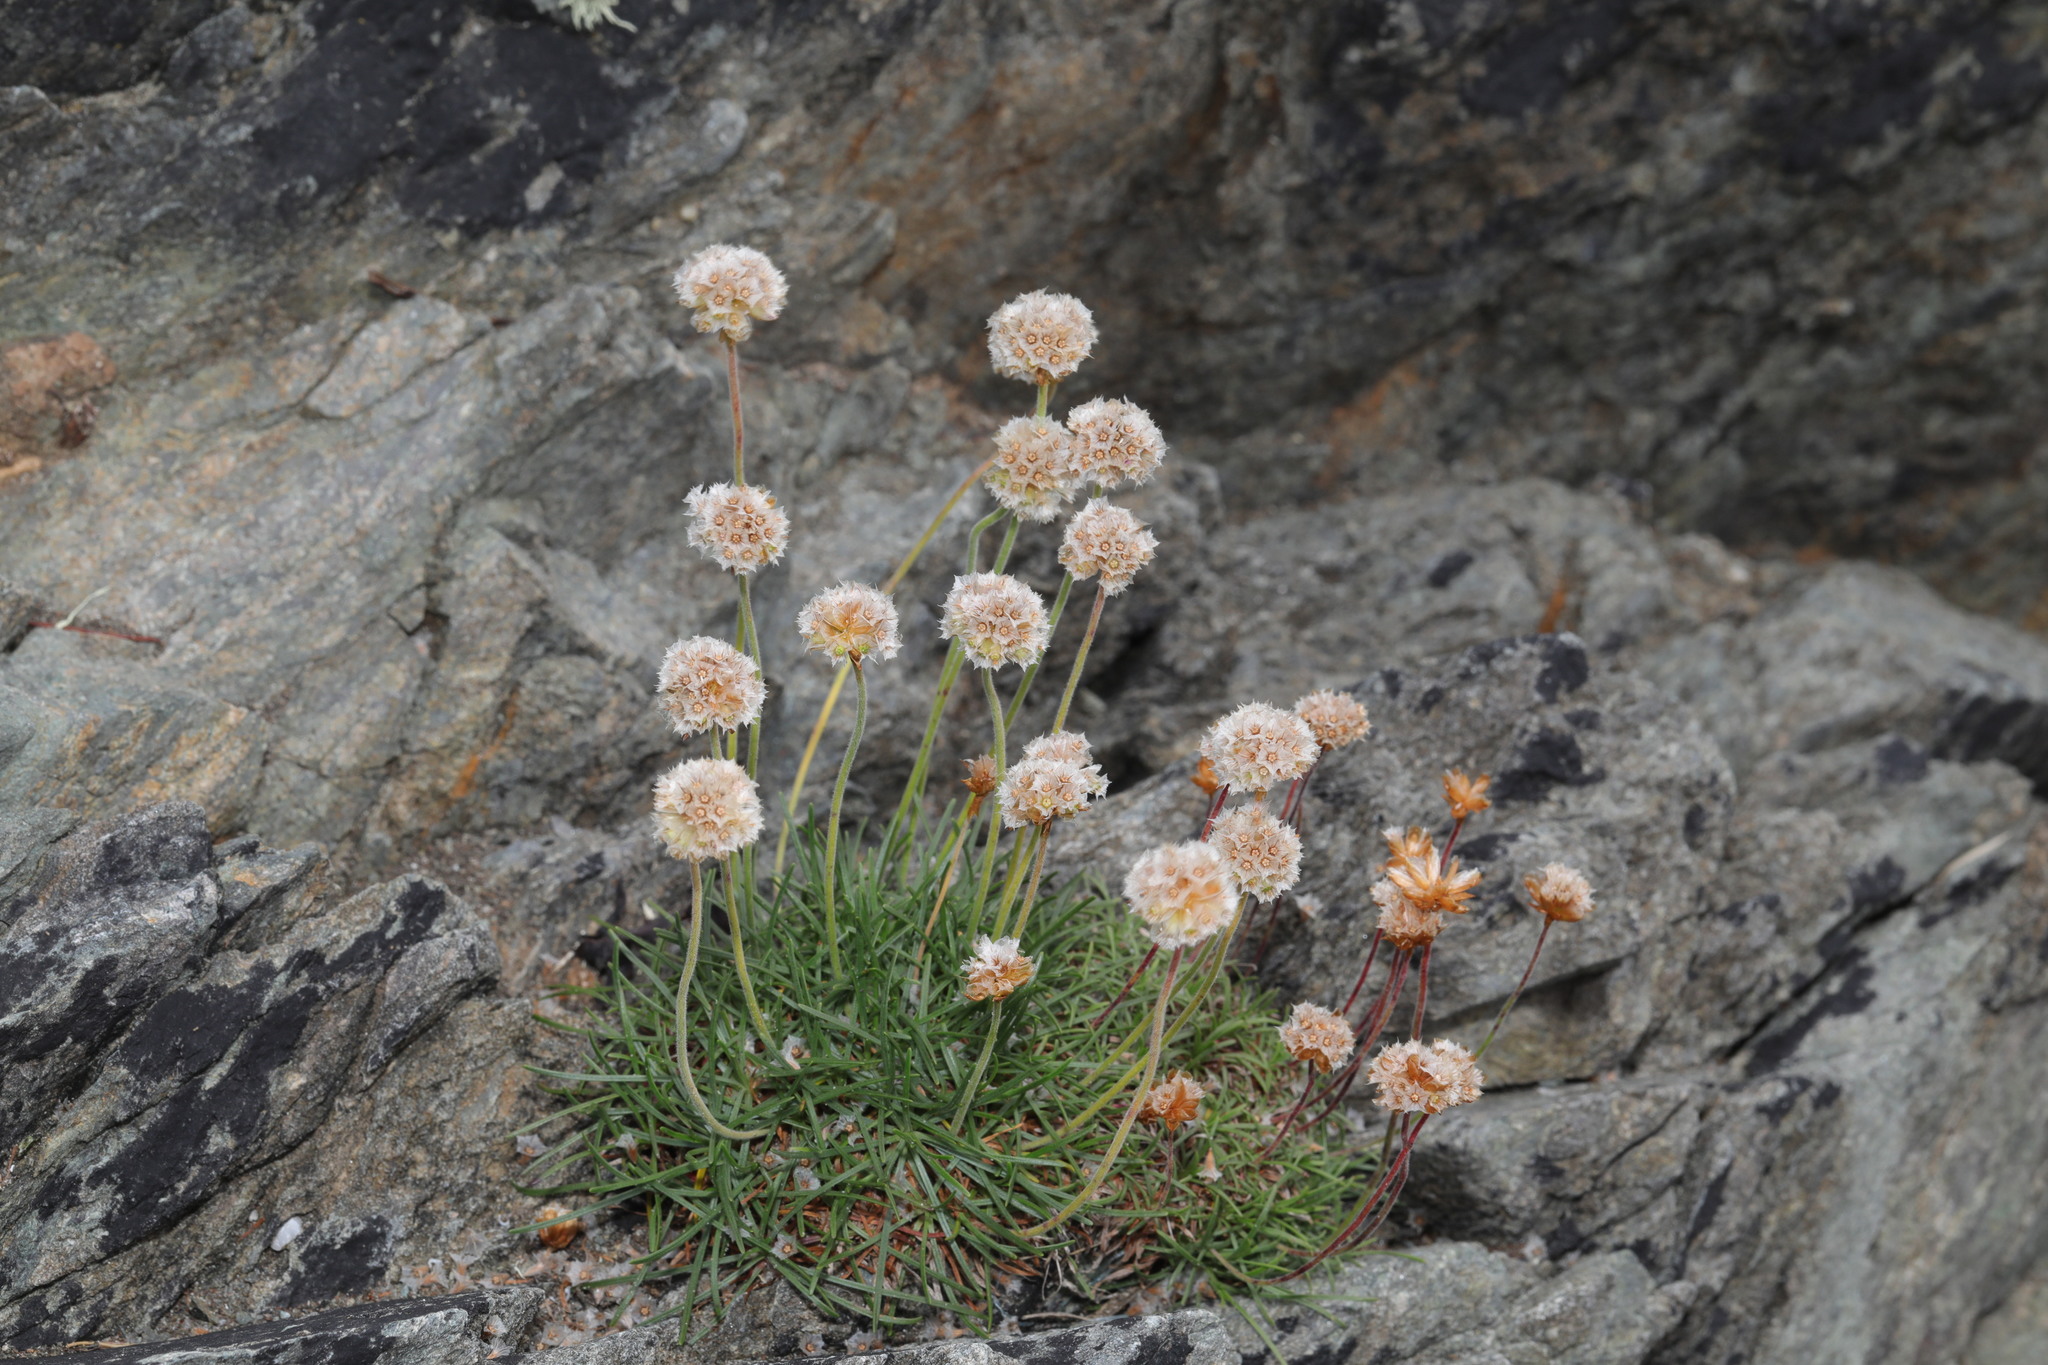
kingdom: Plantae
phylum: Tracheophyta
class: Magnoliopsida
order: Caryophyllales
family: Plumbaginaceae
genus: Armeria
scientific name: Armeria maritima
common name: Thrift
